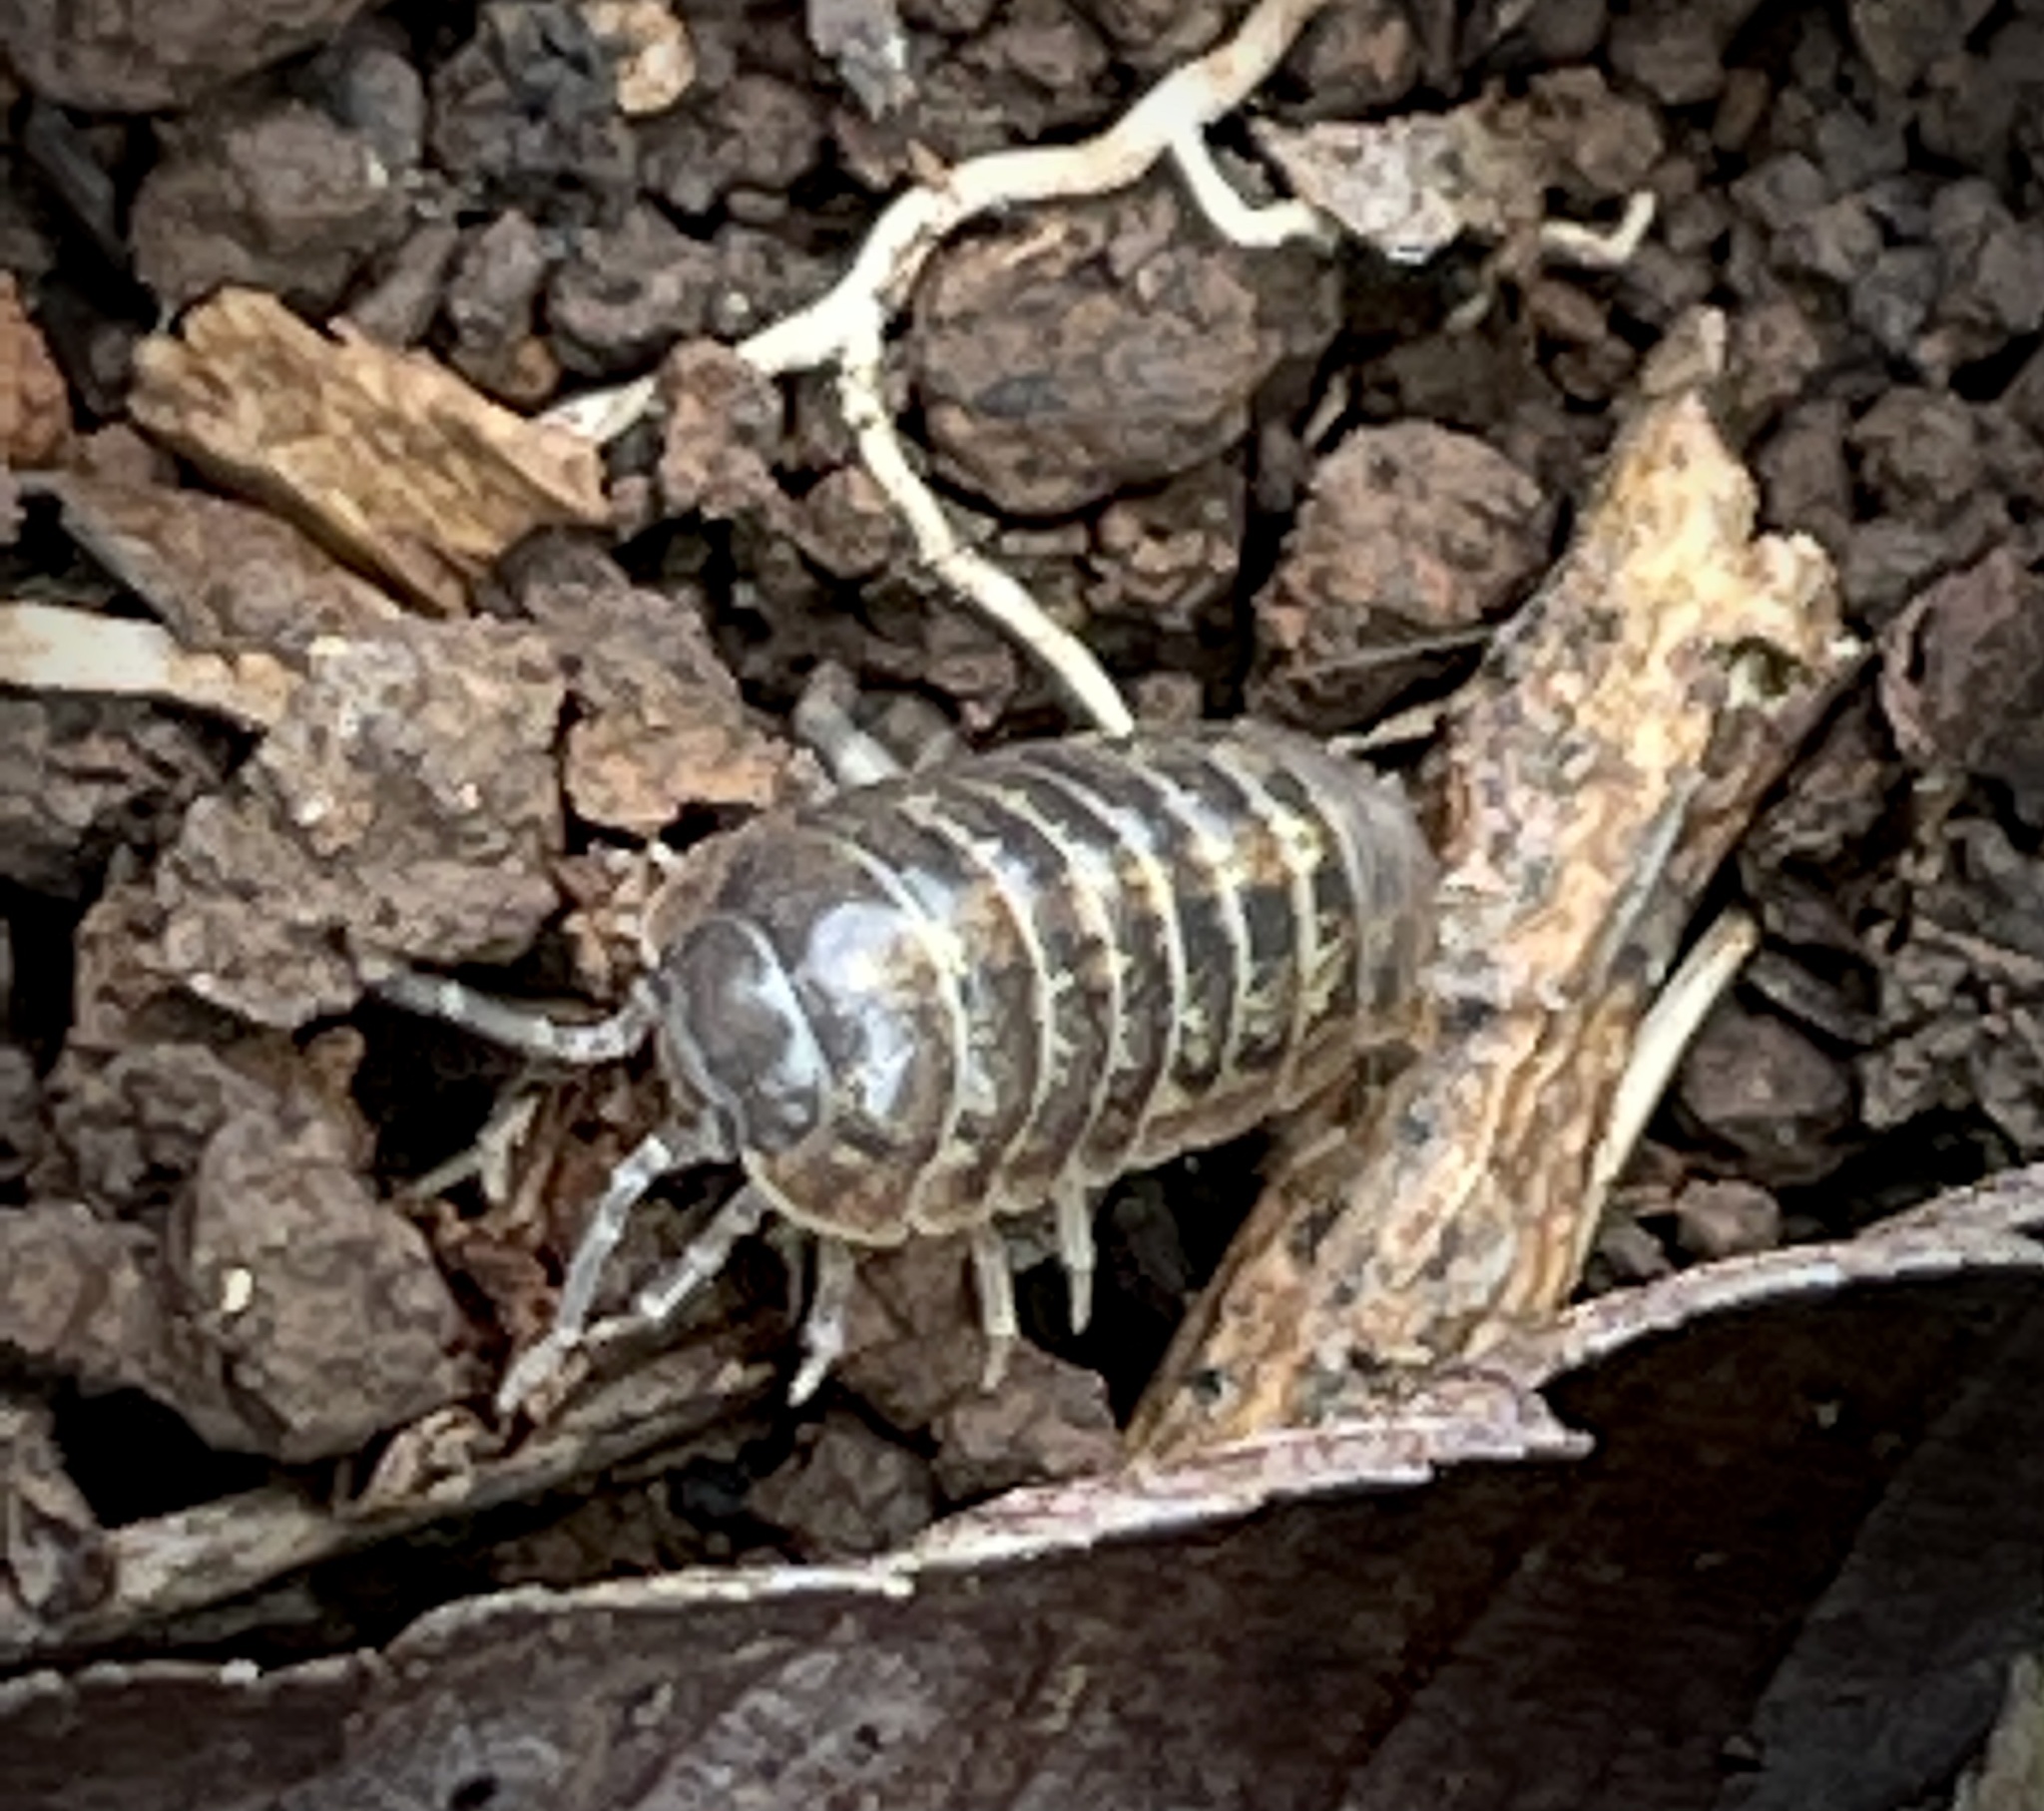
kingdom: Animalia
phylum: Arthropoda
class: Malacostraca
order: Isopoda
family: Armadillidiidae
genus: Armadillidium
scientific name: Armadillidium vulgare
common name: Common pill woodlouse
